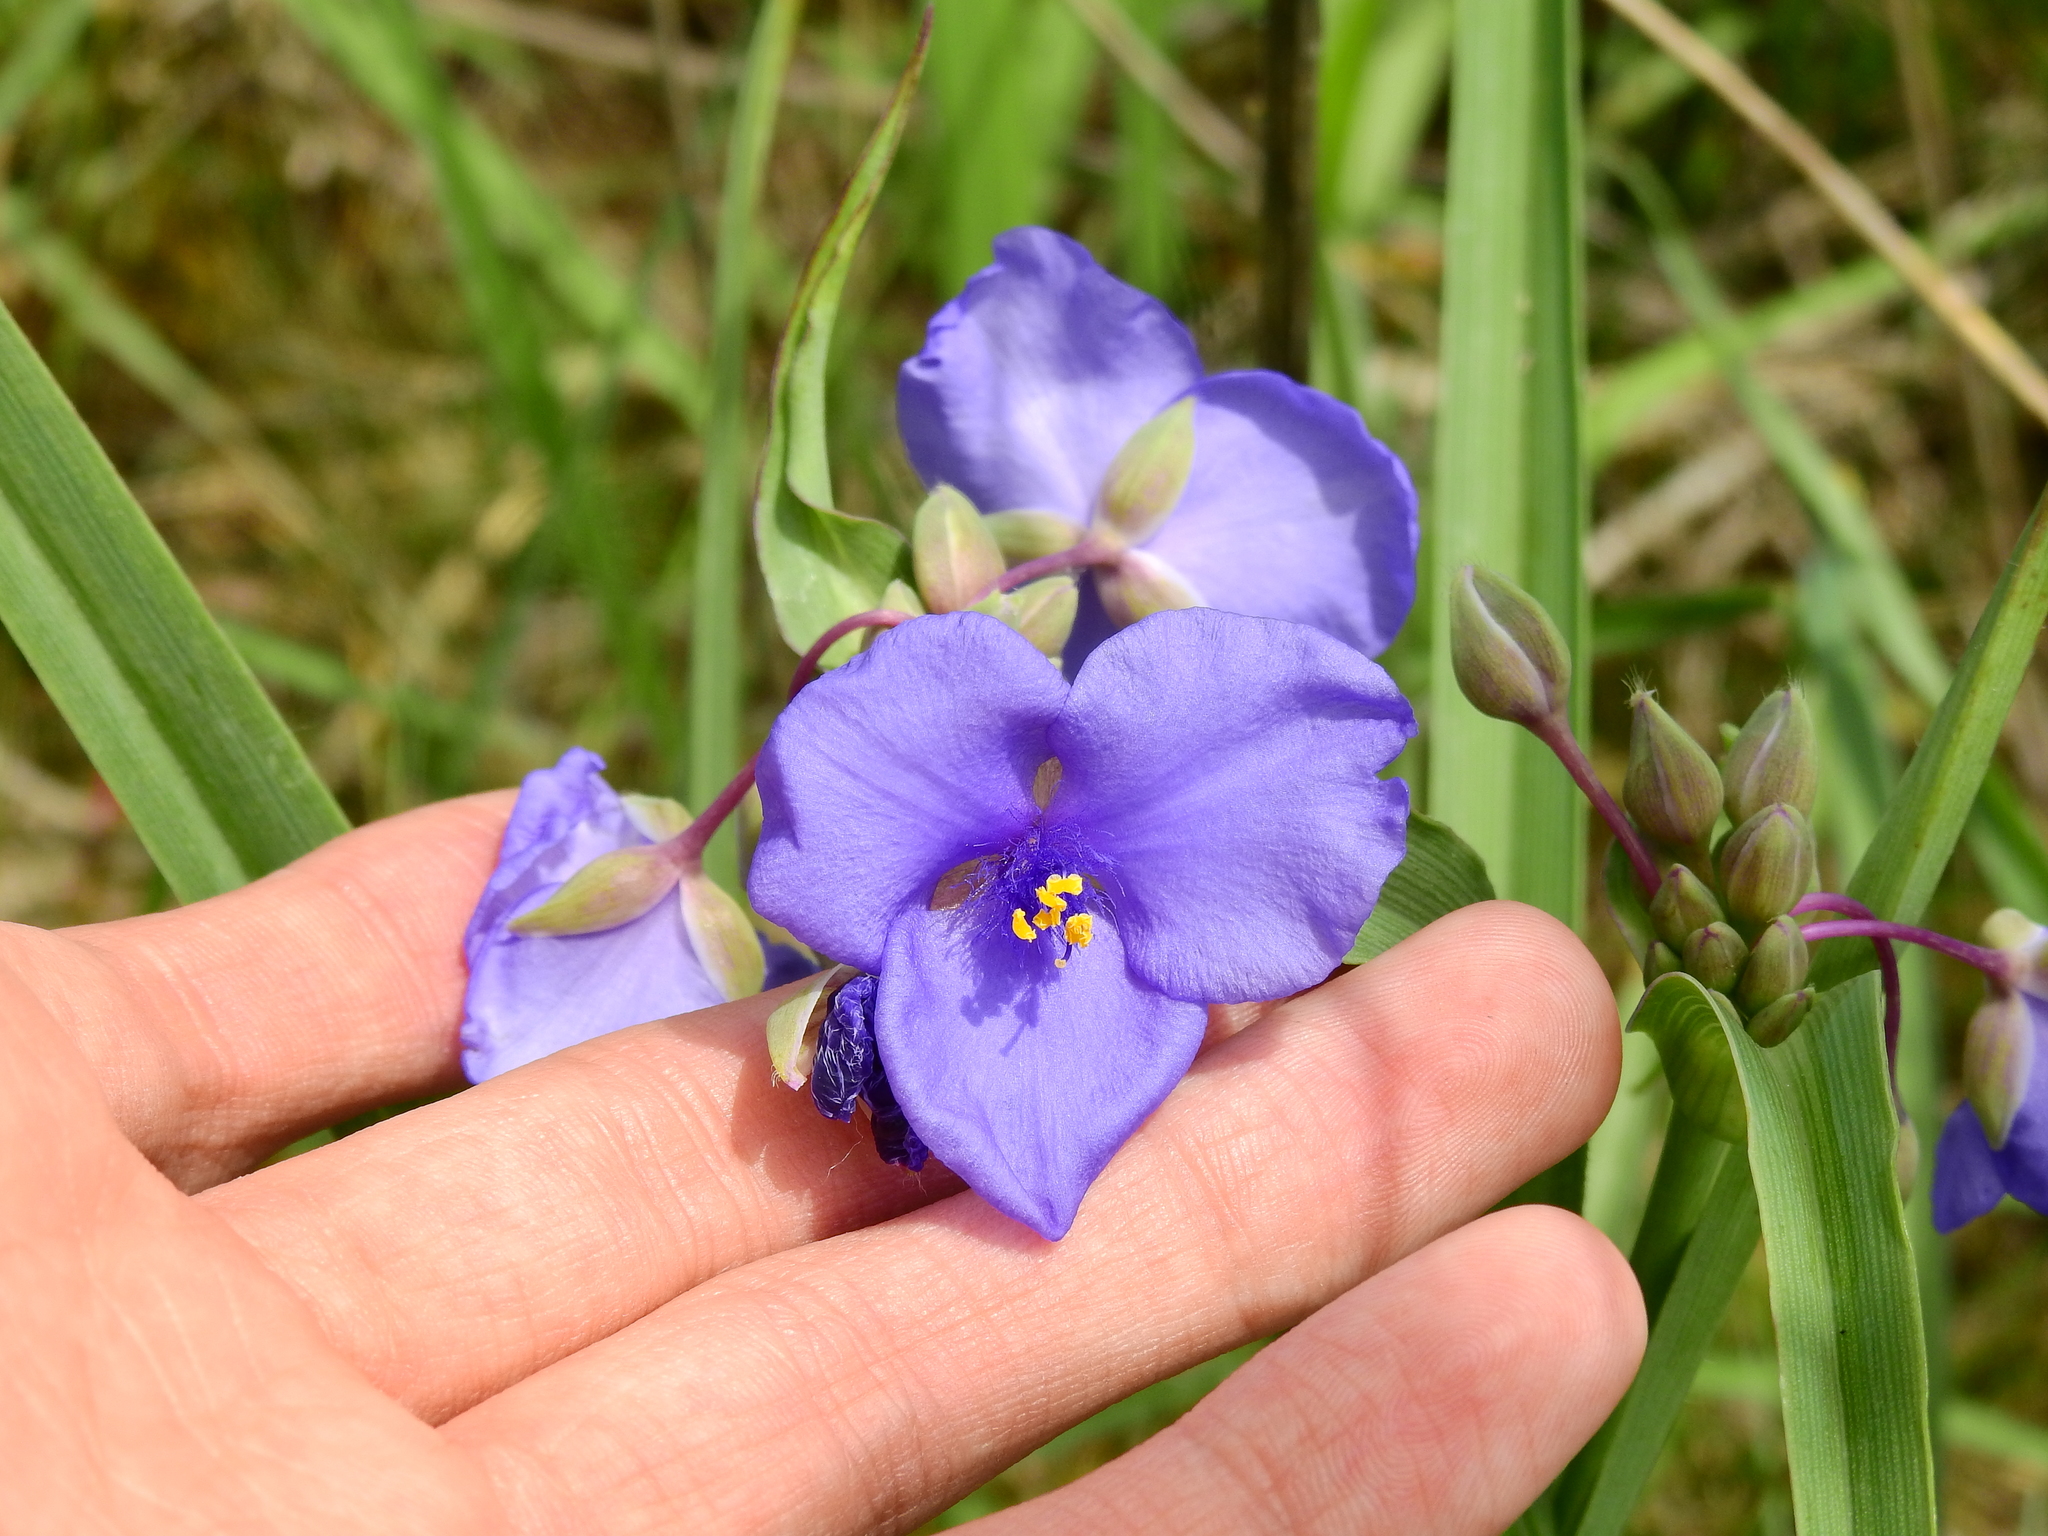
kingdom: Plantae
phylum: Tracheophyta
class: Liliopsida
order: Commelinales
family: Commelinaceae
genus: Tradescantia
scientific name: Tradescantia ohiensis
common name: Ohio spiderwort
